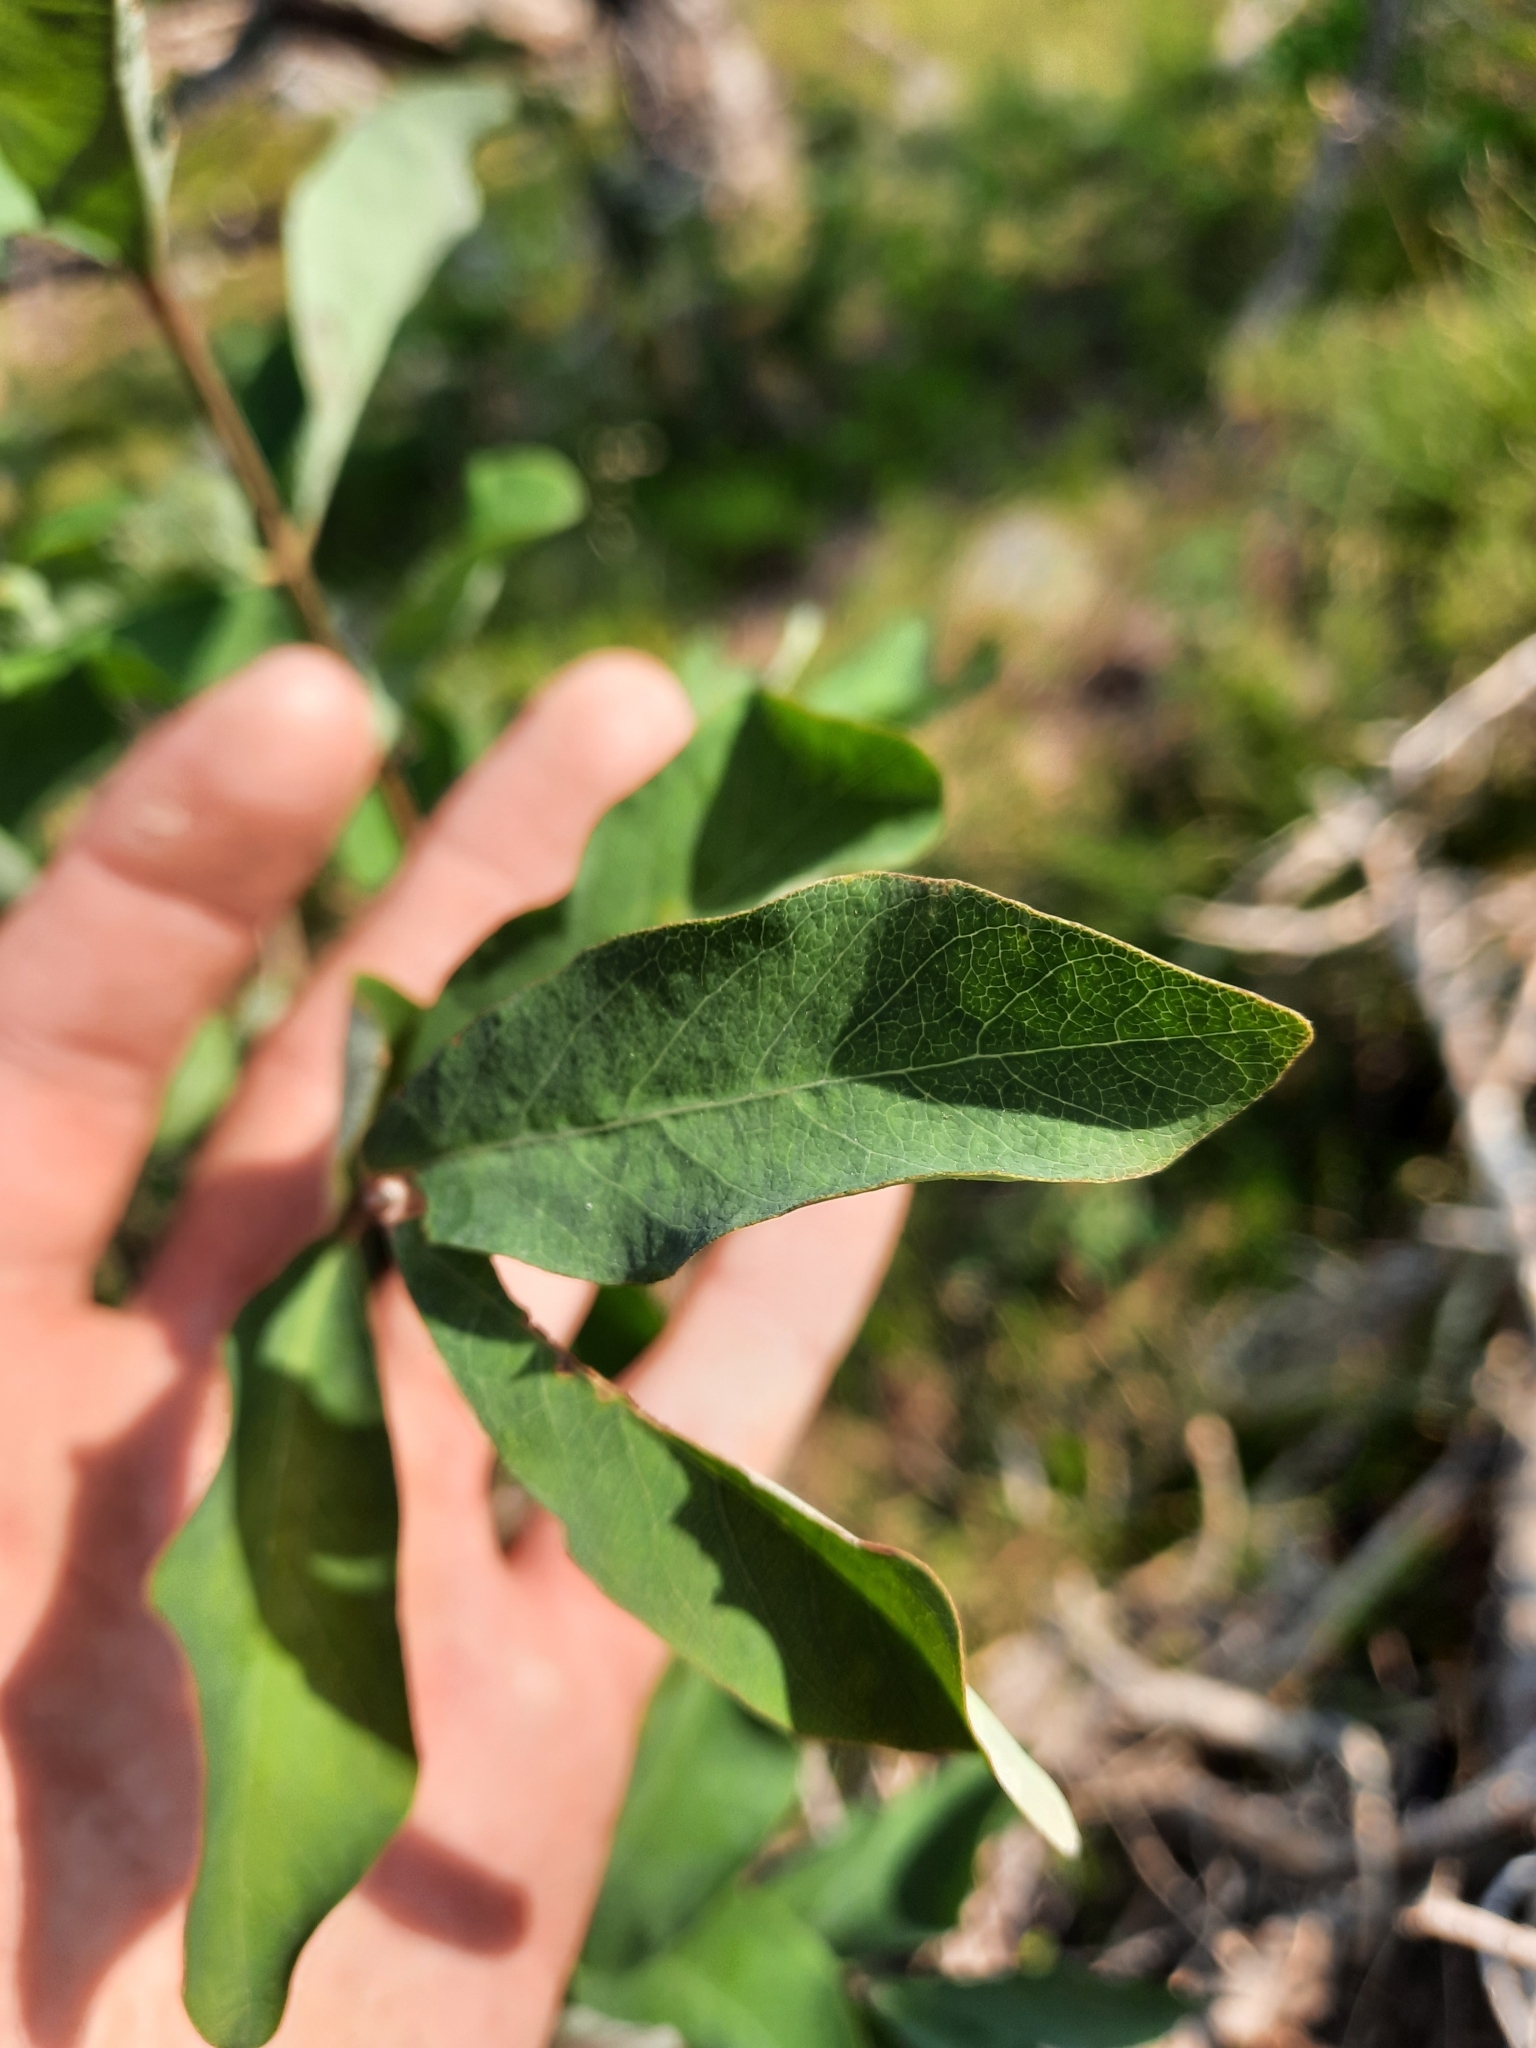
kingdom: Plantae
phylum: Tracheophyta
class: Magnoliopsida
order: Dipsacales
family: Caprifoliaceae
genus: Lonicera
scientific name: Lonicera utahensis
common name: Utah honeysuckle
